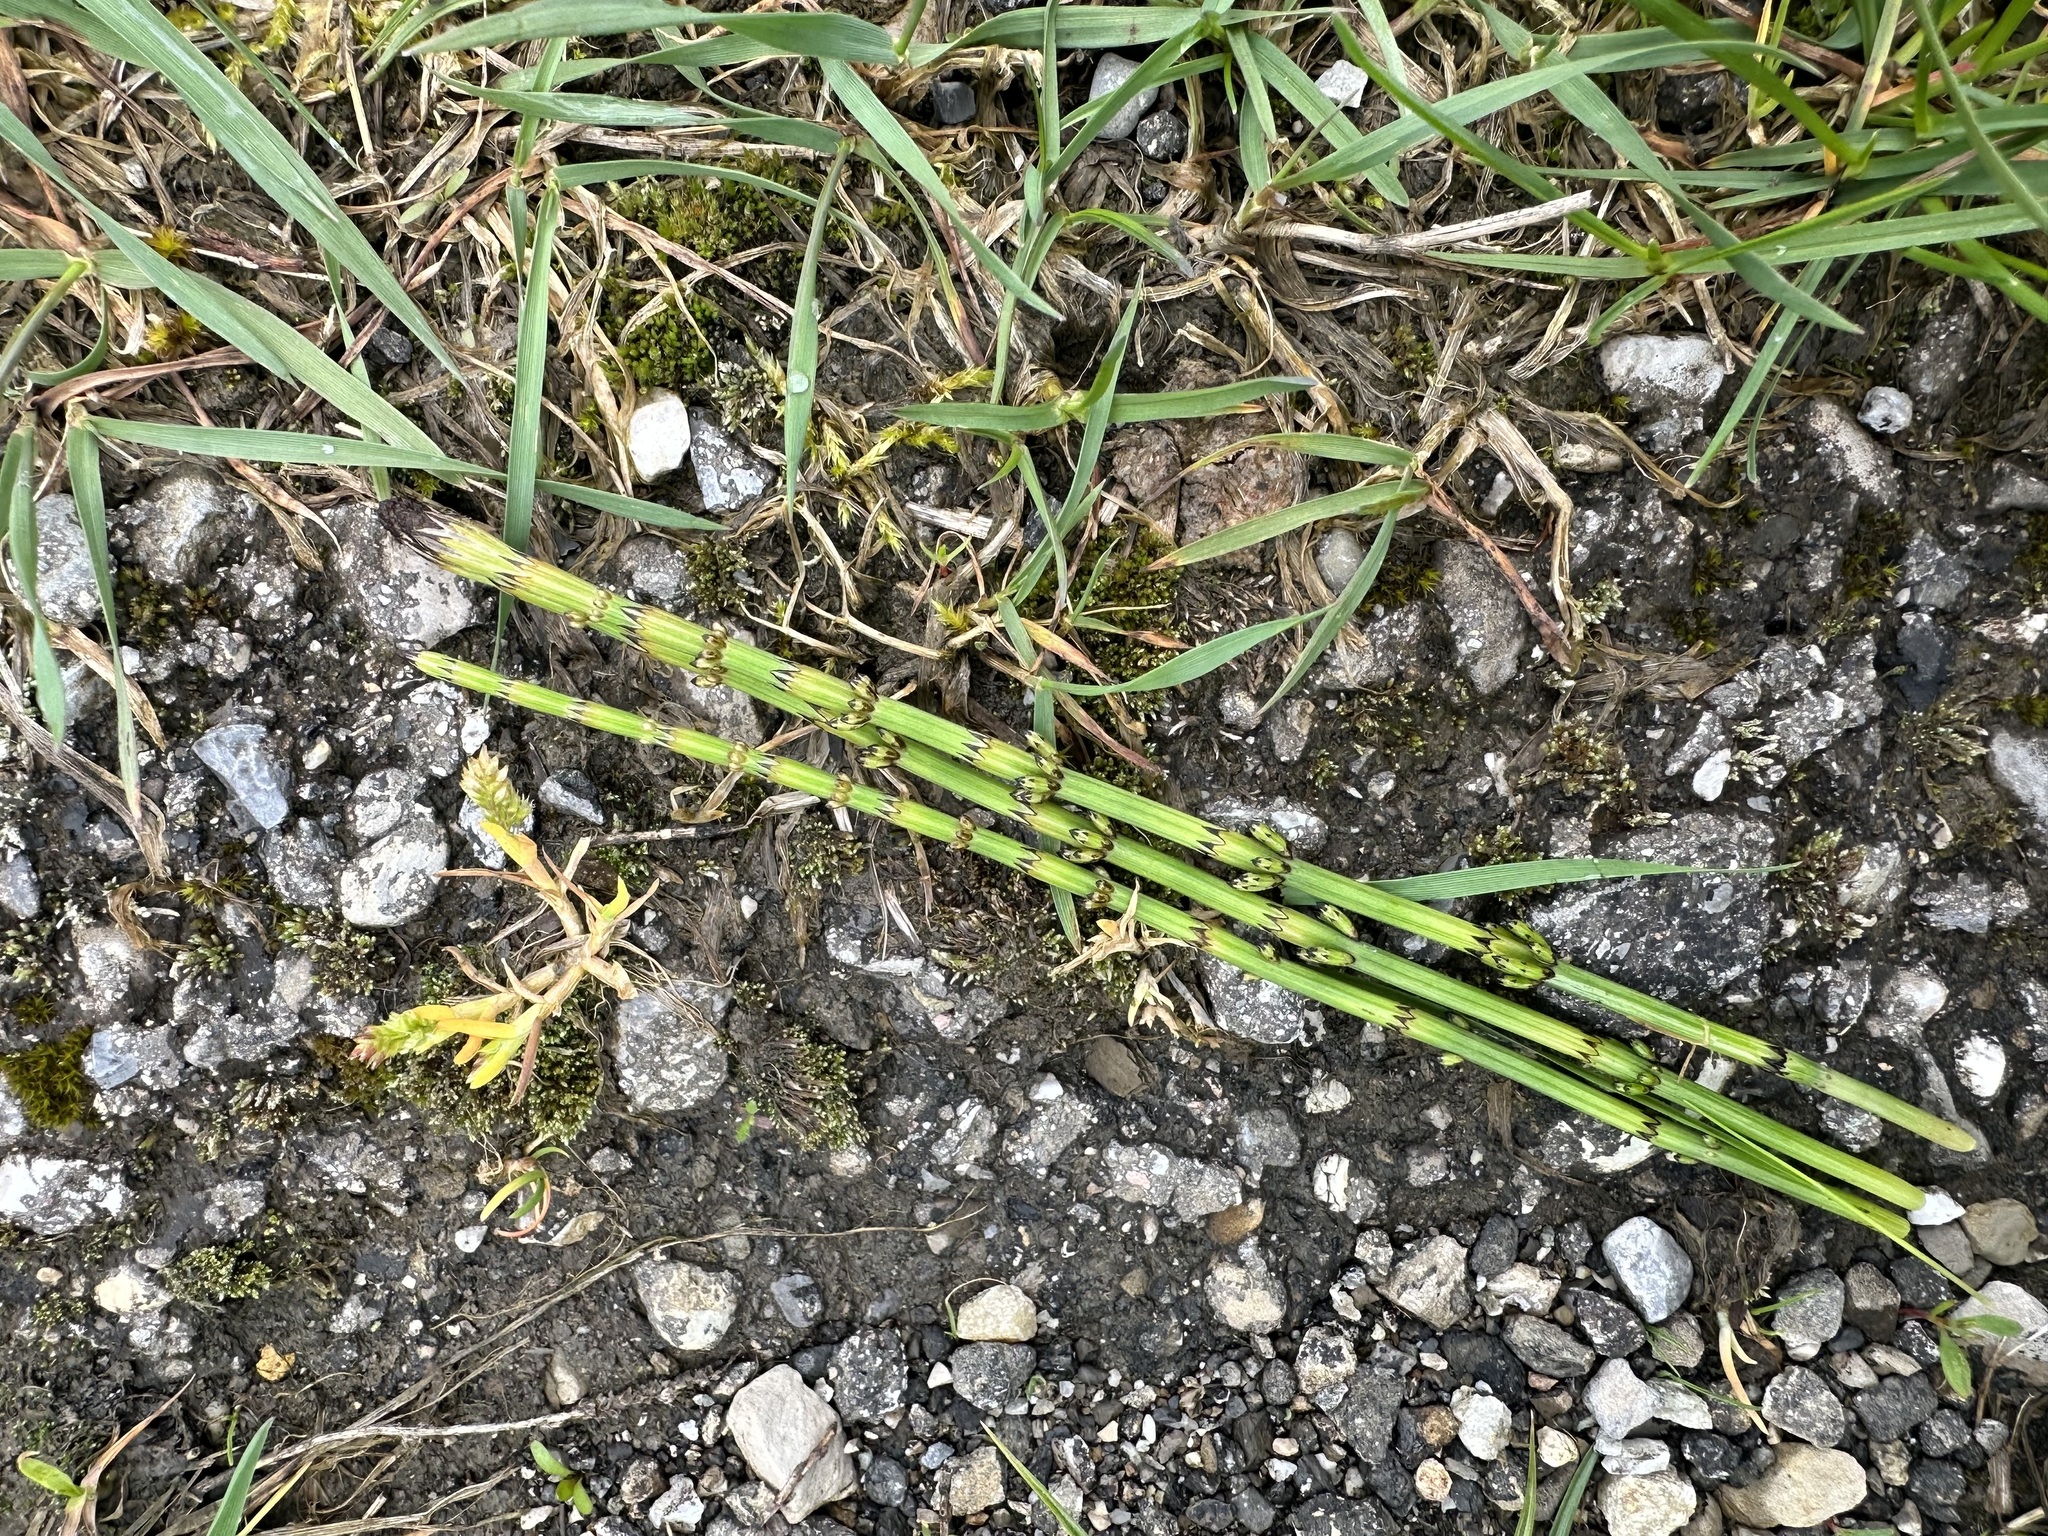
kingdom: Plantae
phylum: Tracheophyta
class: Polypodiopsida
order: Equisetales
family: Equisetaceae
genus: Equisetum
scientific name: Equisetum palustre
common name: Marsh horsetail
